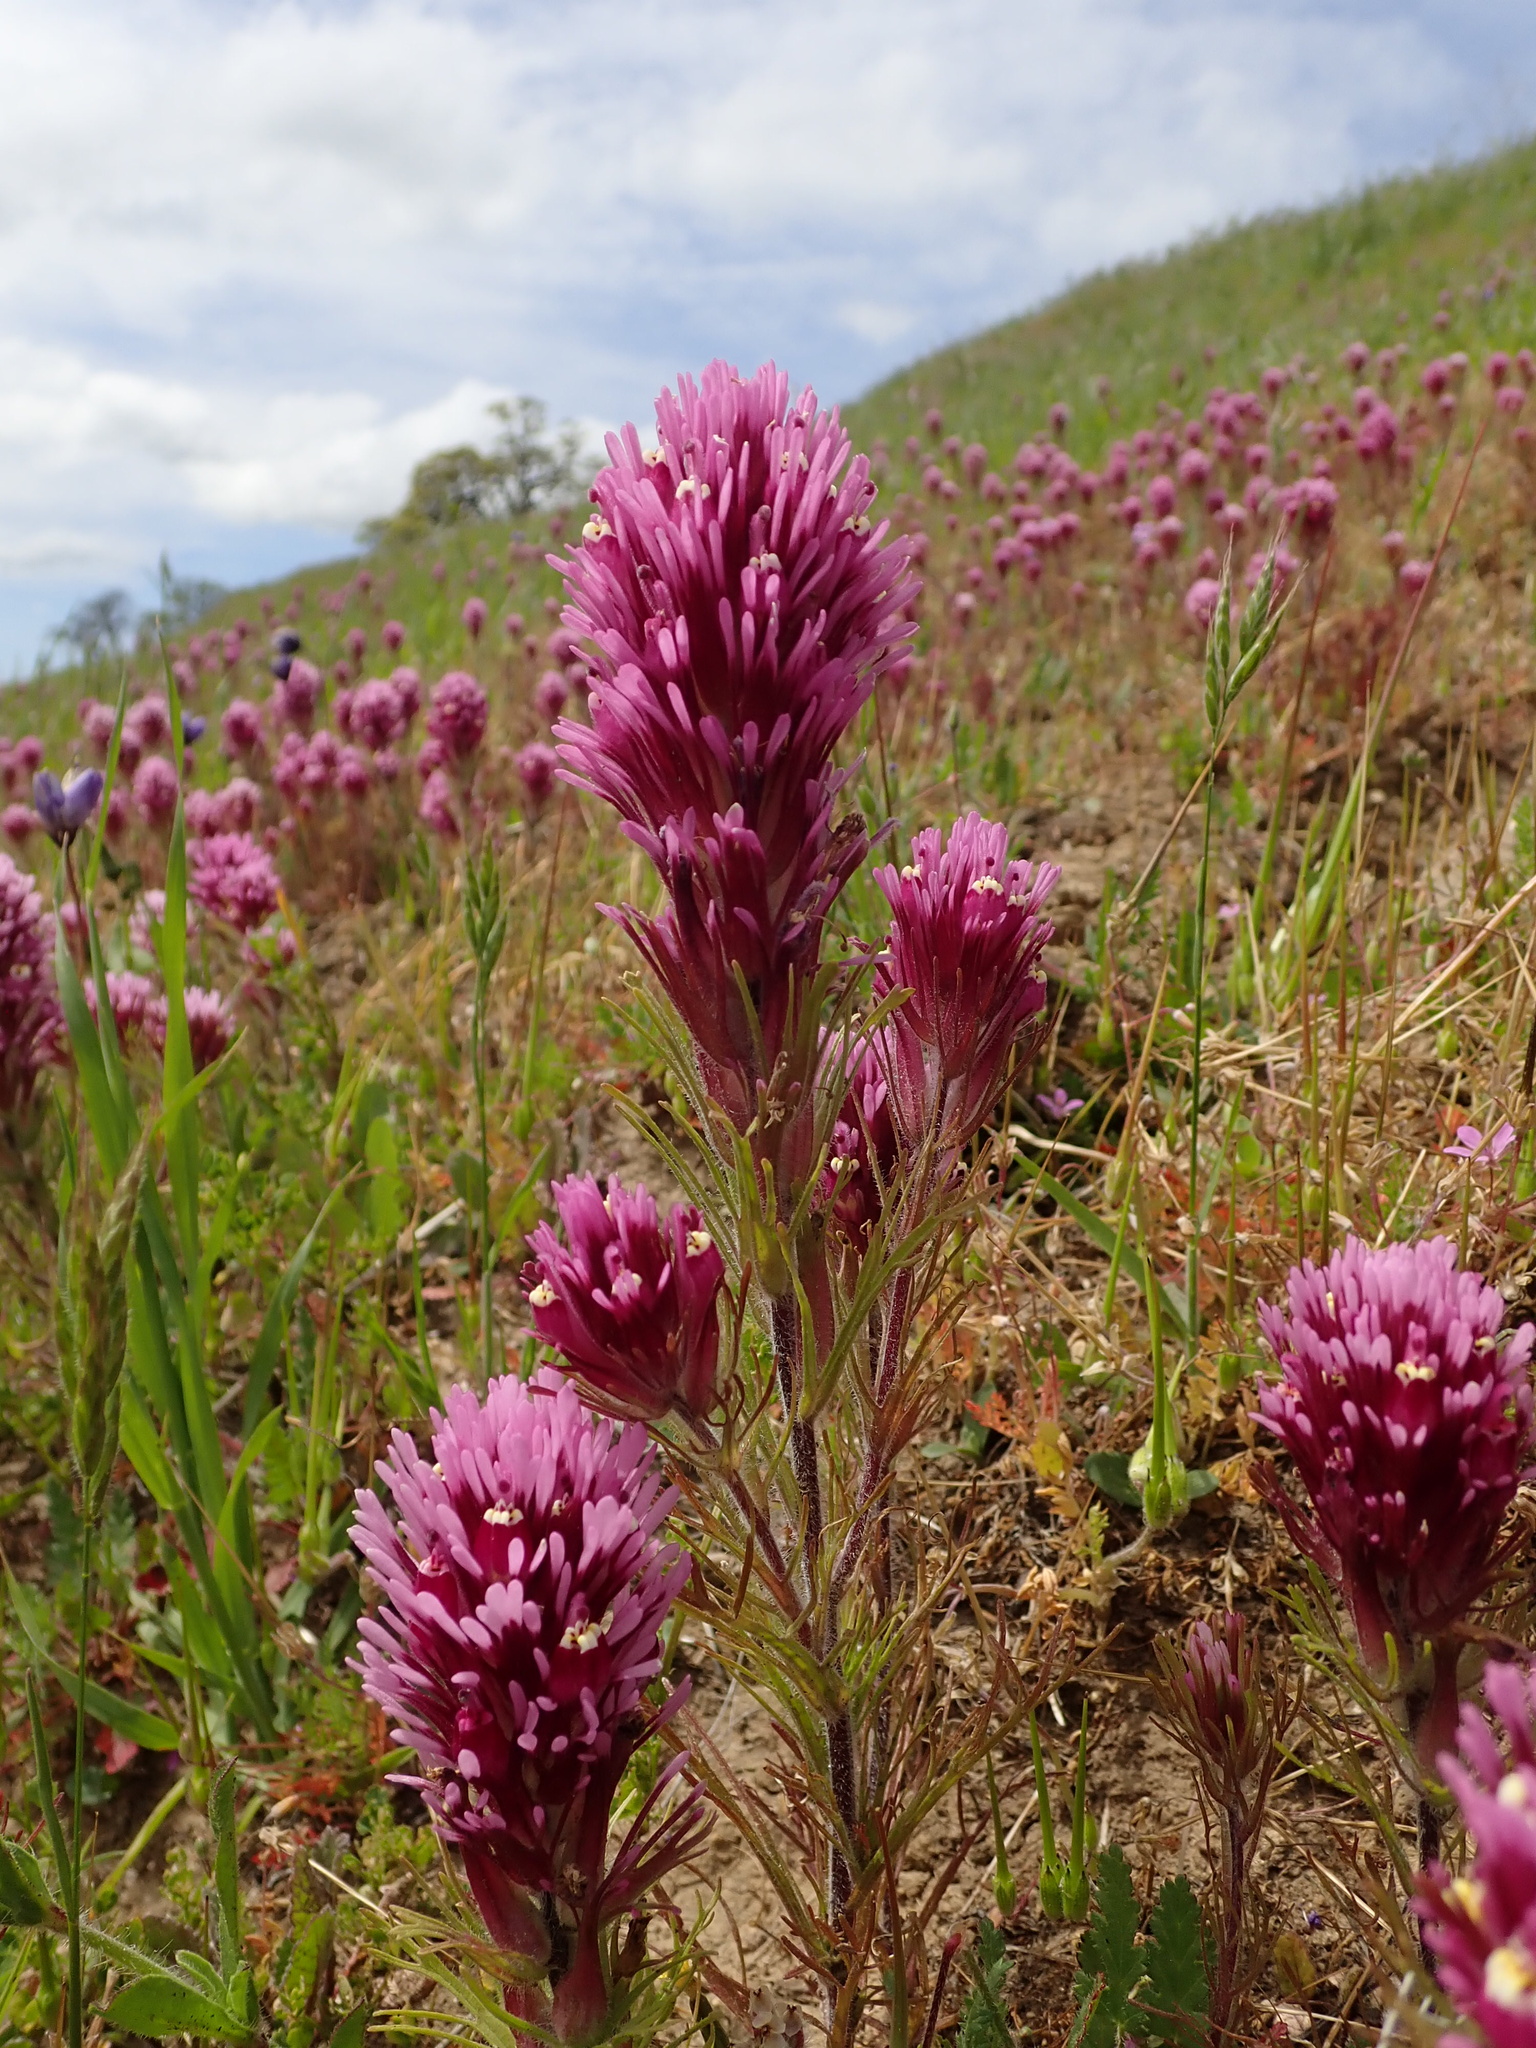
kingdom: Plantae
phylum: Tracheophyta
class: Magnoliopsida
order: Lamiales
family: Orobanchaceae
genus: Castilleja
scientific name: Castilleja exserta
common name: Purple owl-clover
